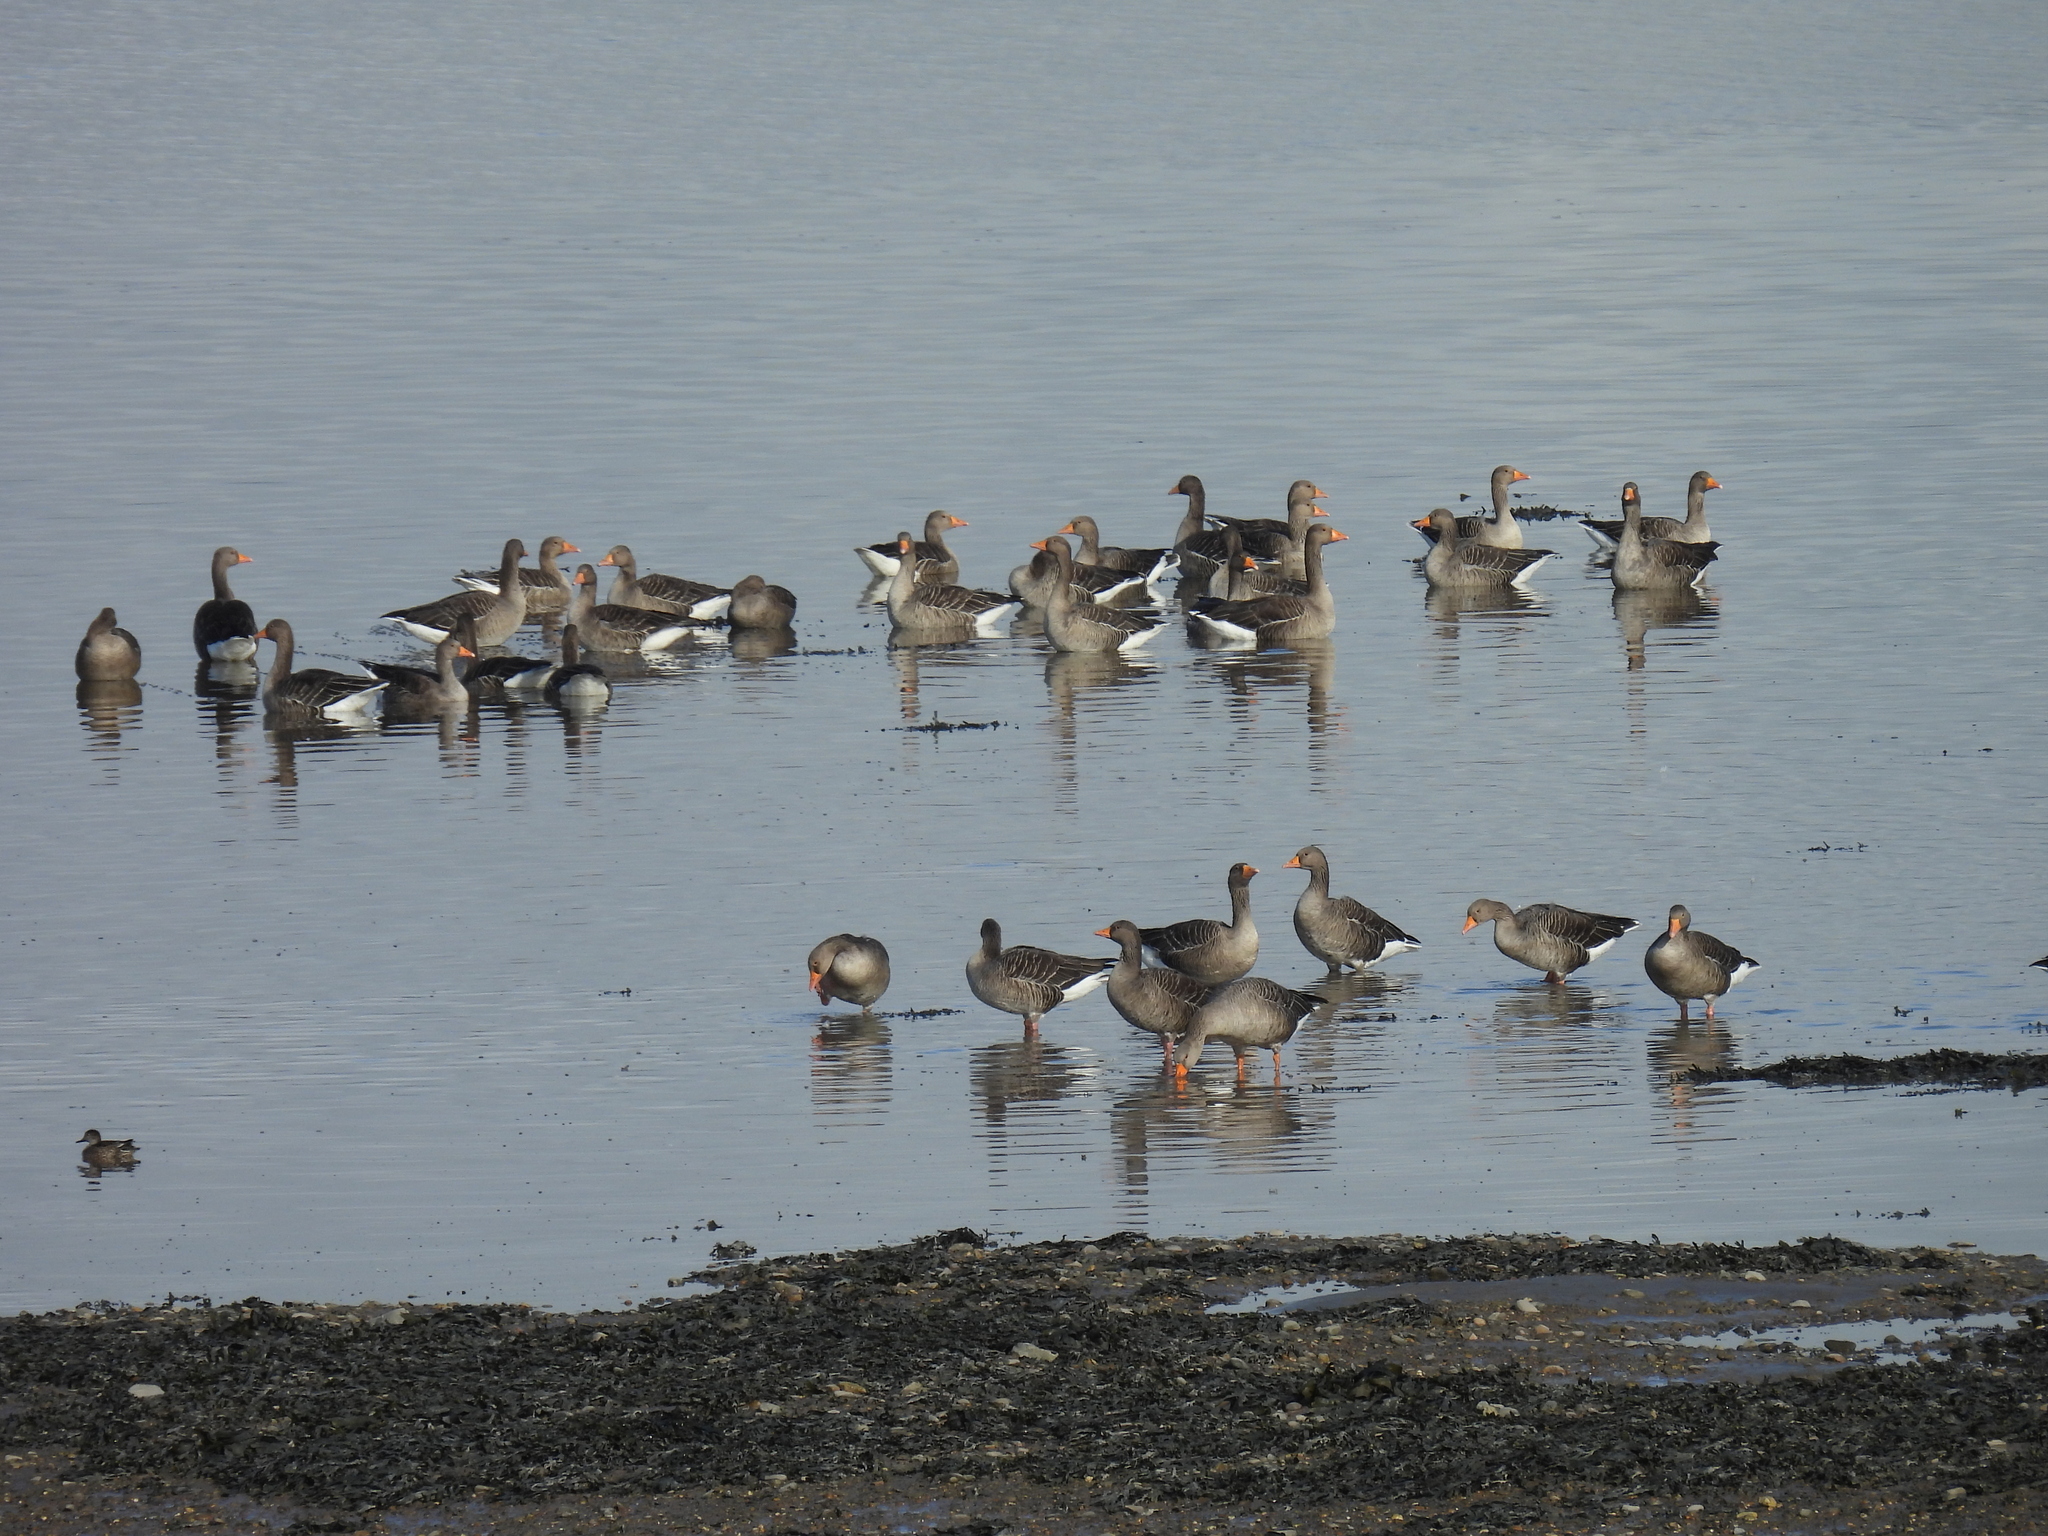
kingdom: Animalia
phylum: Chordata
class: Aves
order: Anseriformes
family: Anatidae
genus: Anser
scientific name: Anser anser
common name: Greylag goose
